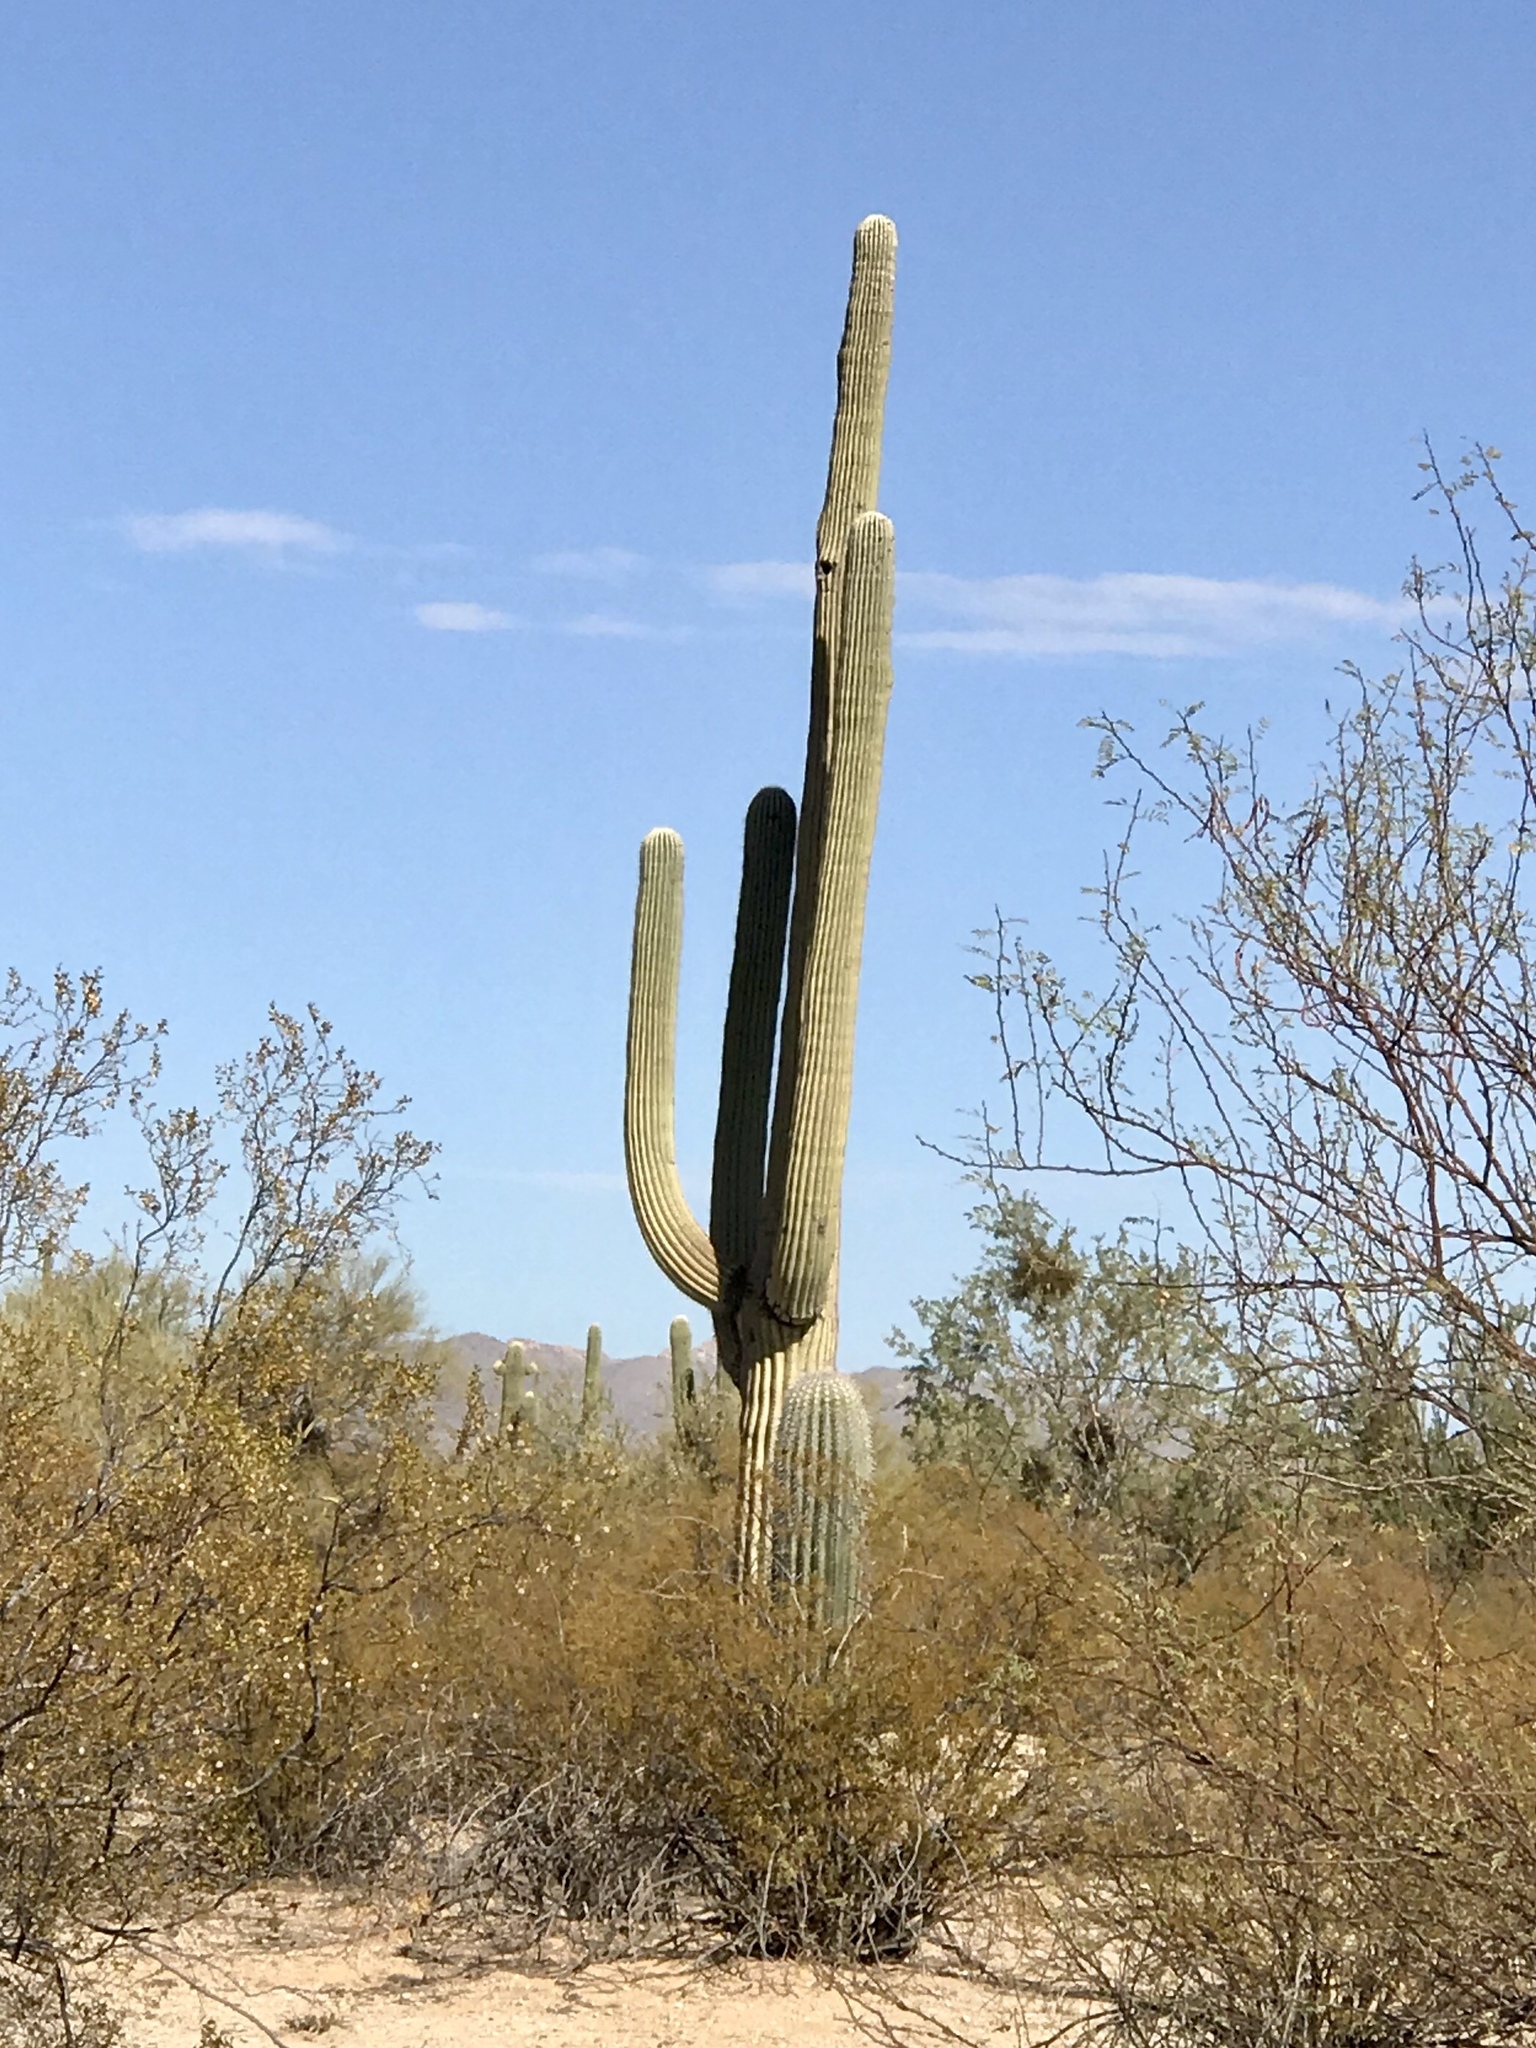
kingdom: Plantae
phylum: Tracheophyta
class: Magnoliopsida
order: Caryophyllales
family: Cactaceae
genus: Carnegiea
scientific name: Carnegiea gigantea
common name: Saguaro
